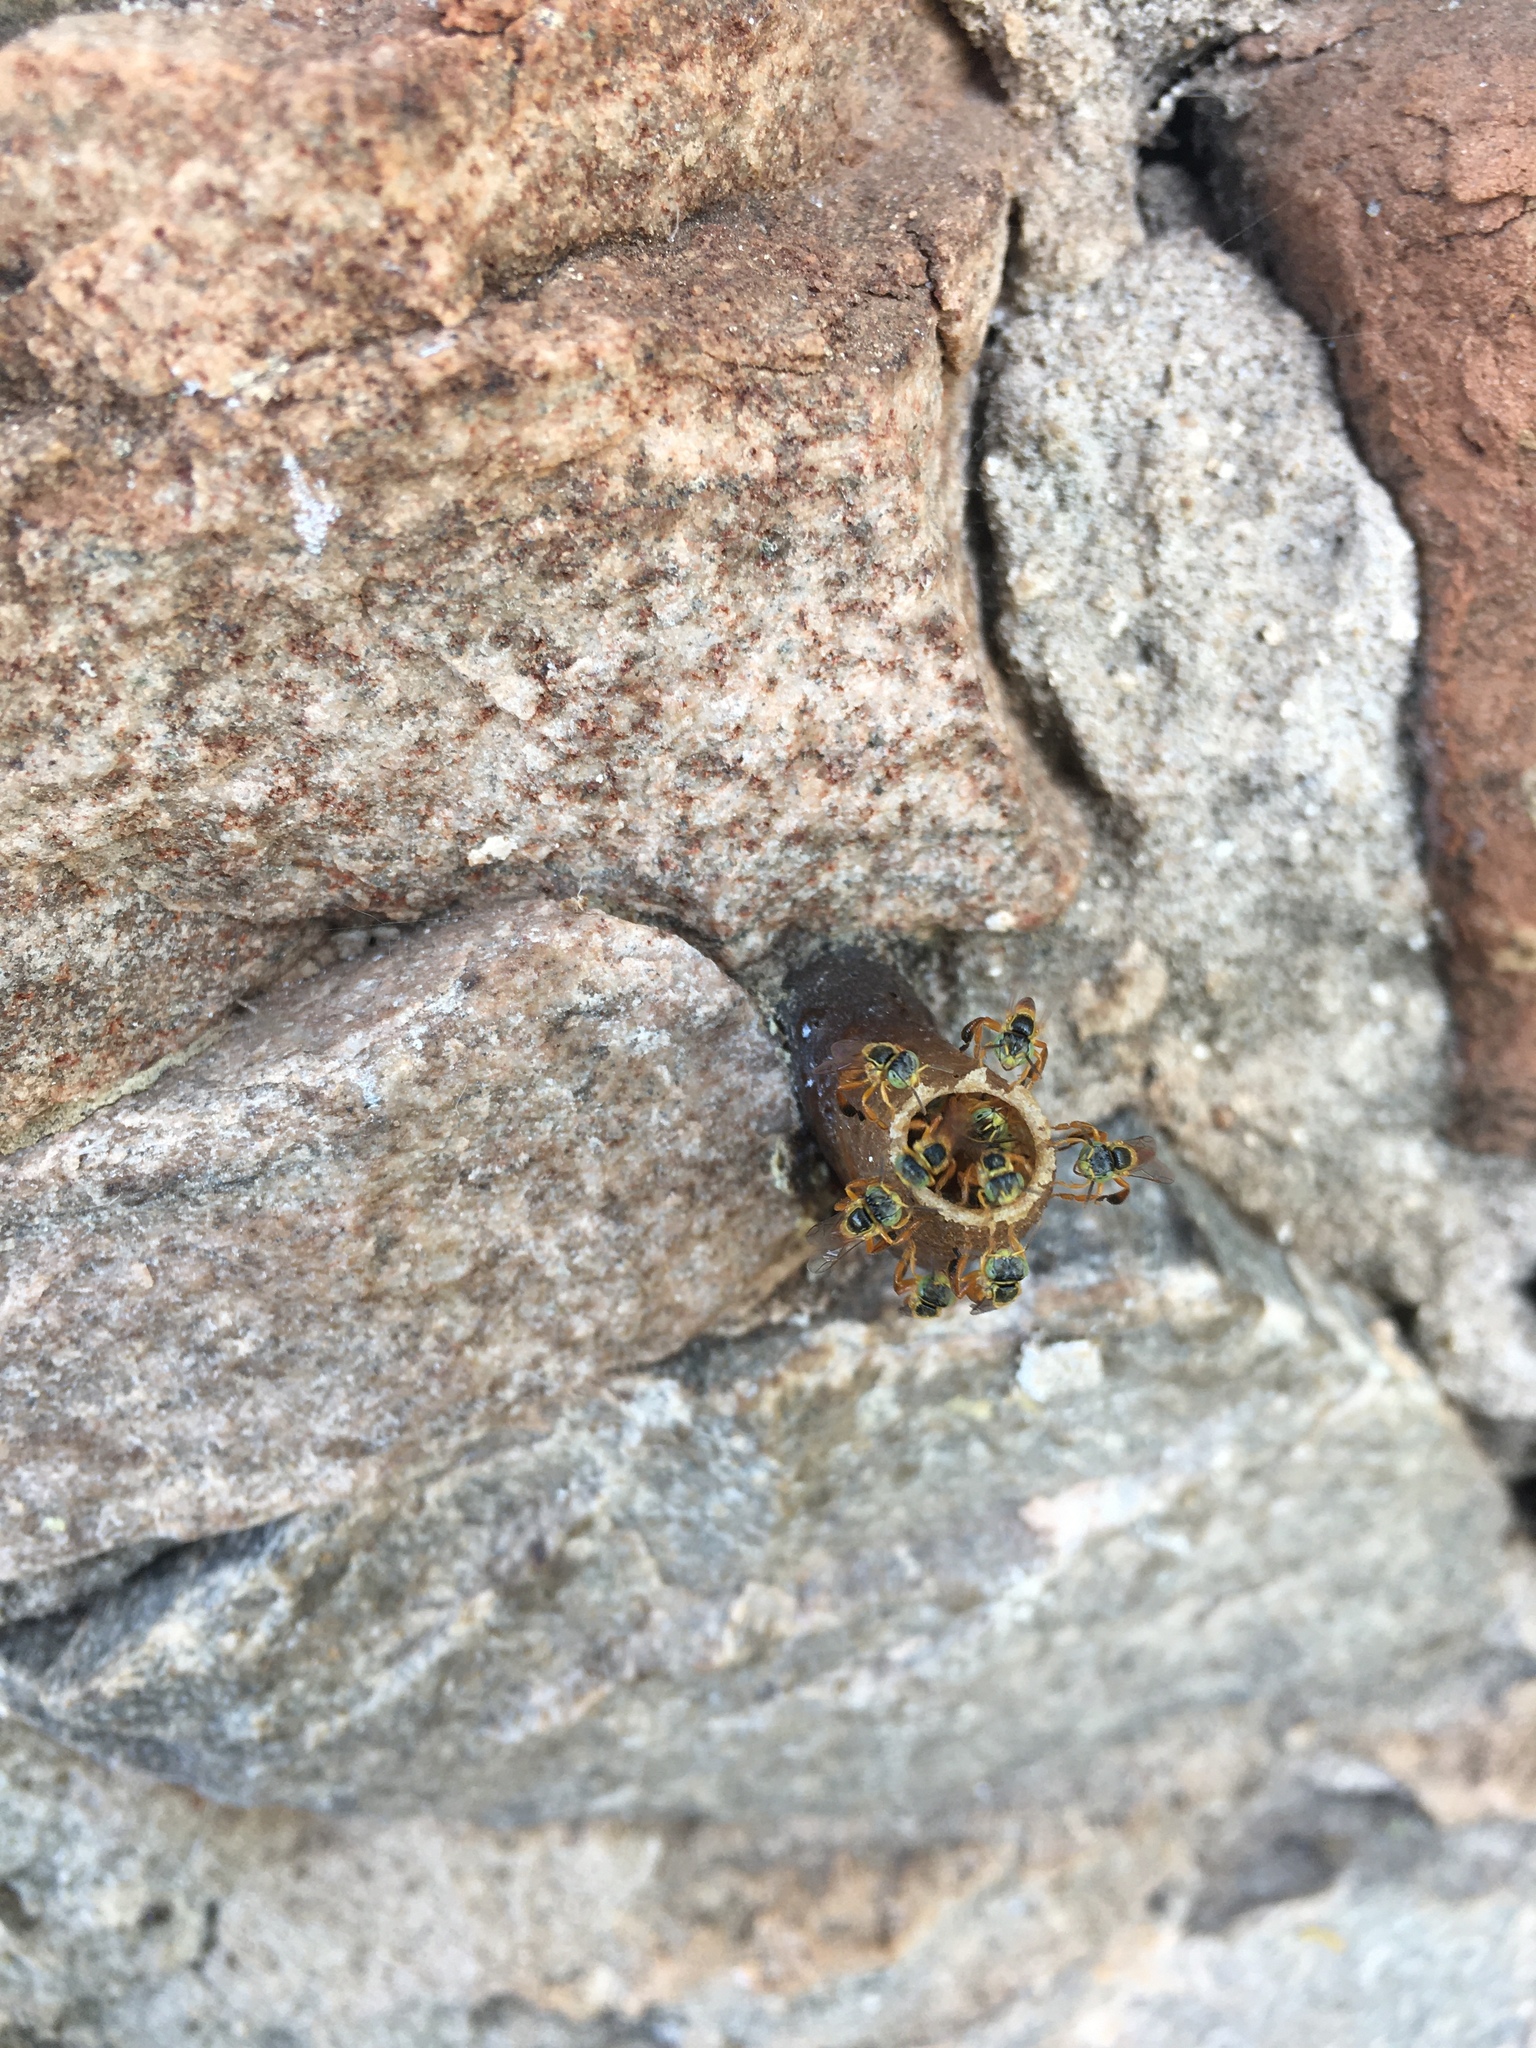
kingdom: Animalia
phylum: Arthropoda
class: Insecta
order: Hymenoptera
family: Apidae
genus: Tetragonisca
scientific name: Tetragonisca fiebrigi
